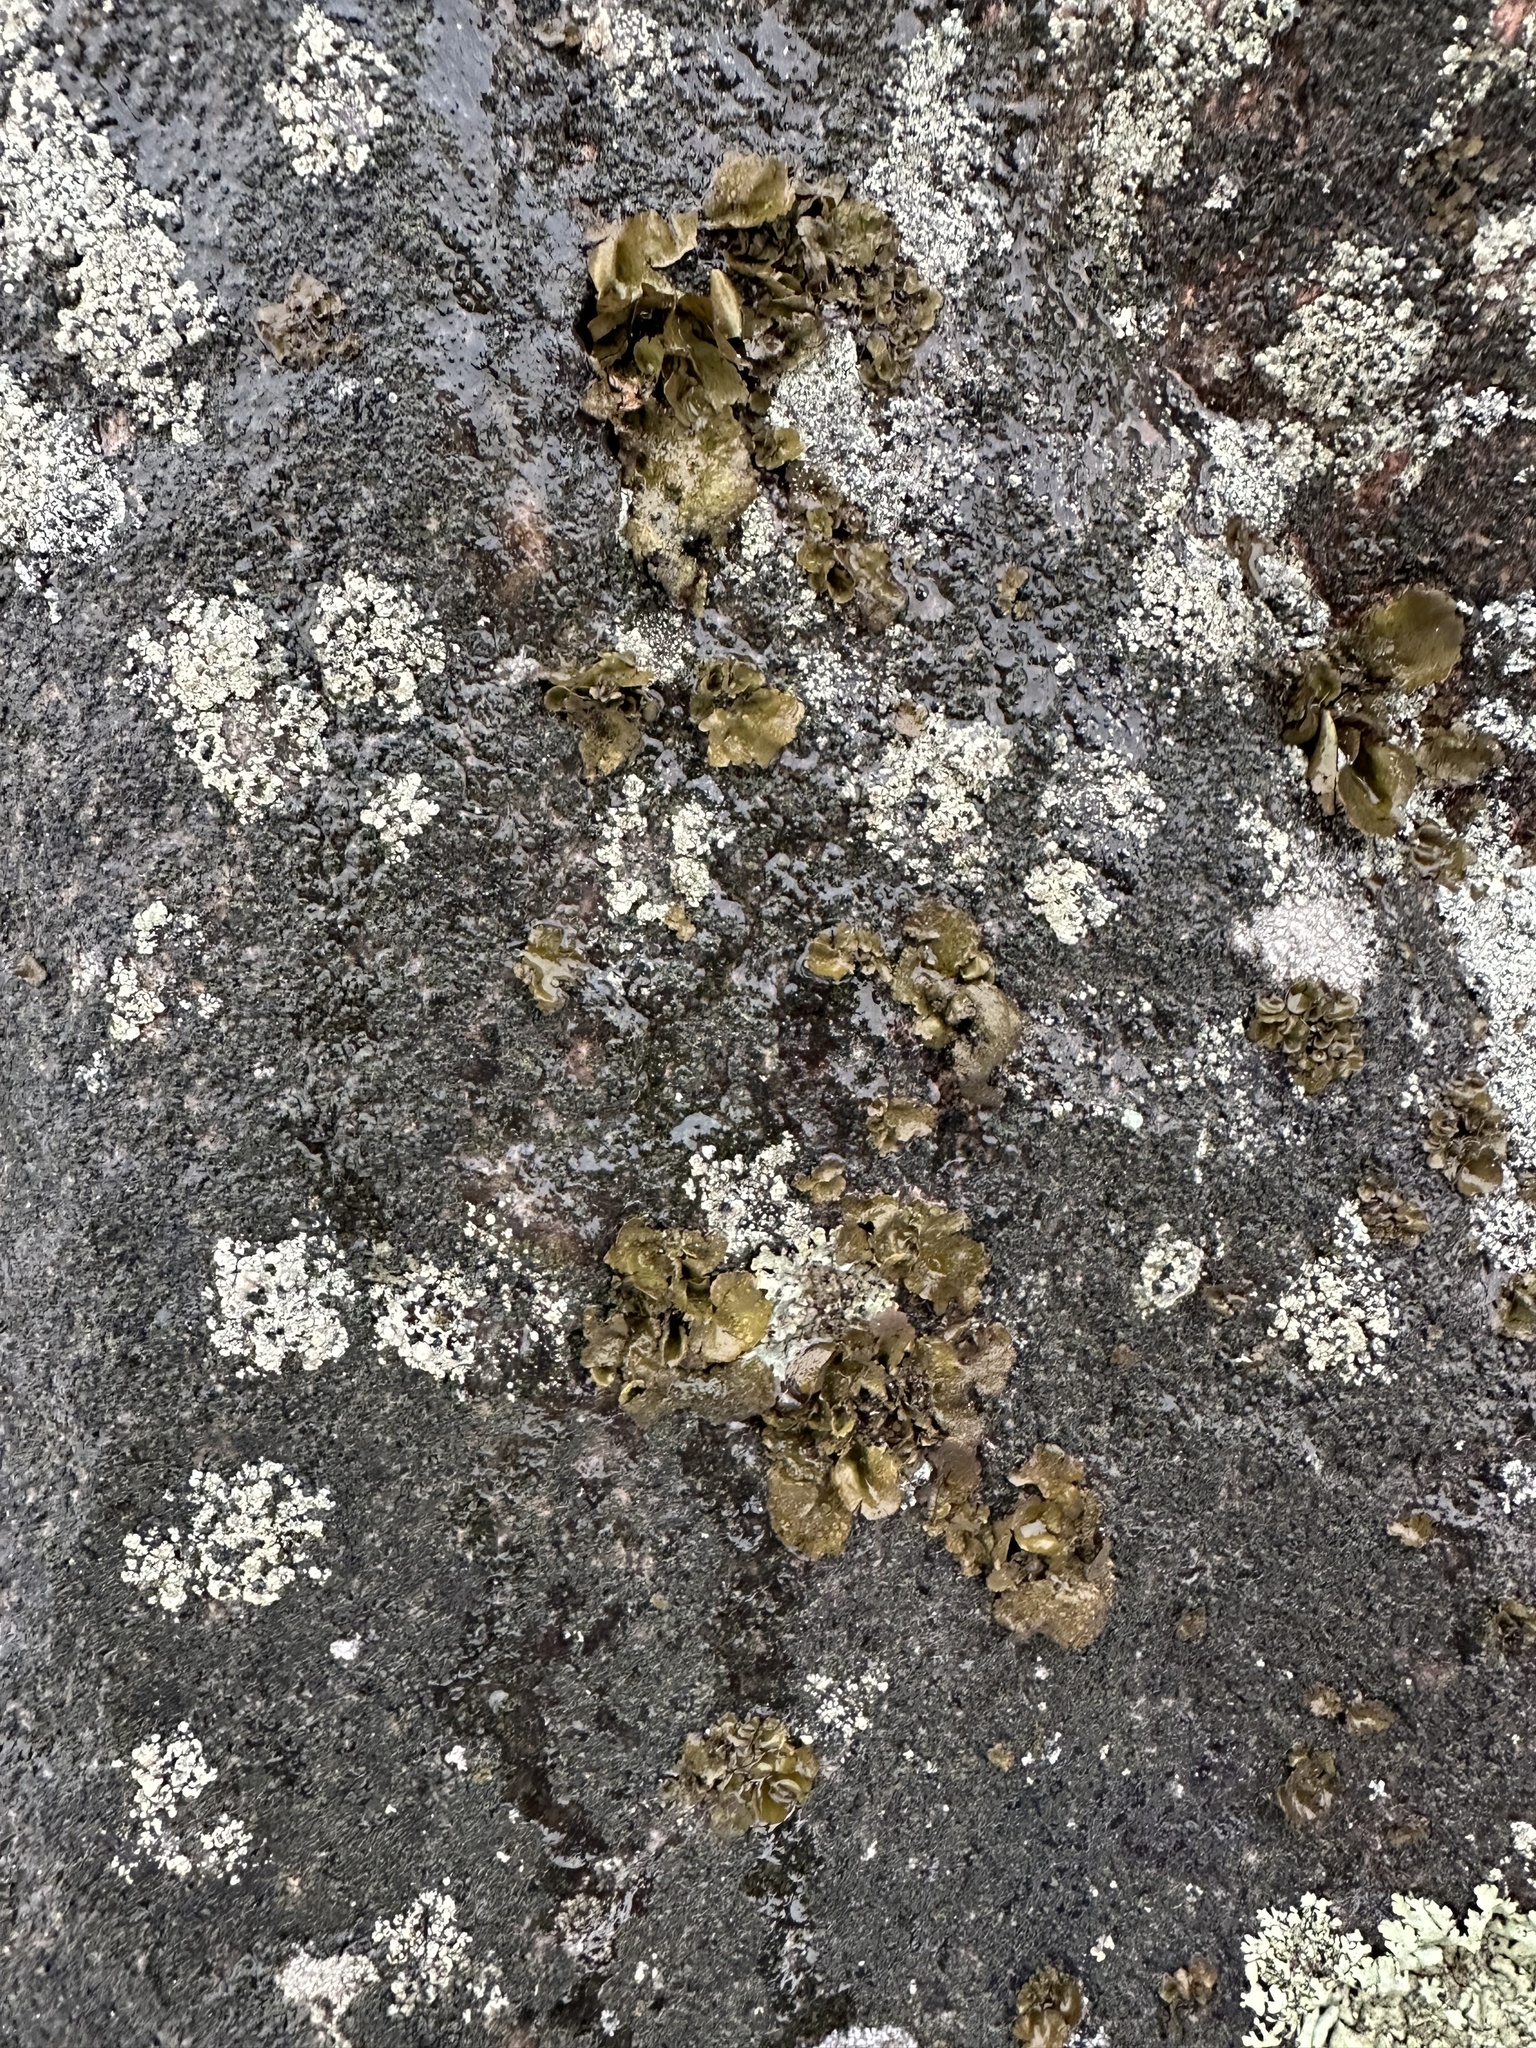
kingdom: Fungi
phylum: Ascomycota
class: Lecanoromycetes
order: Umbilicariales
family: Umbilicariaceae
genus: Umbilicaria
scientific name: Umbilicaria polyphylla
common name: Petalled rocktripe lichen
